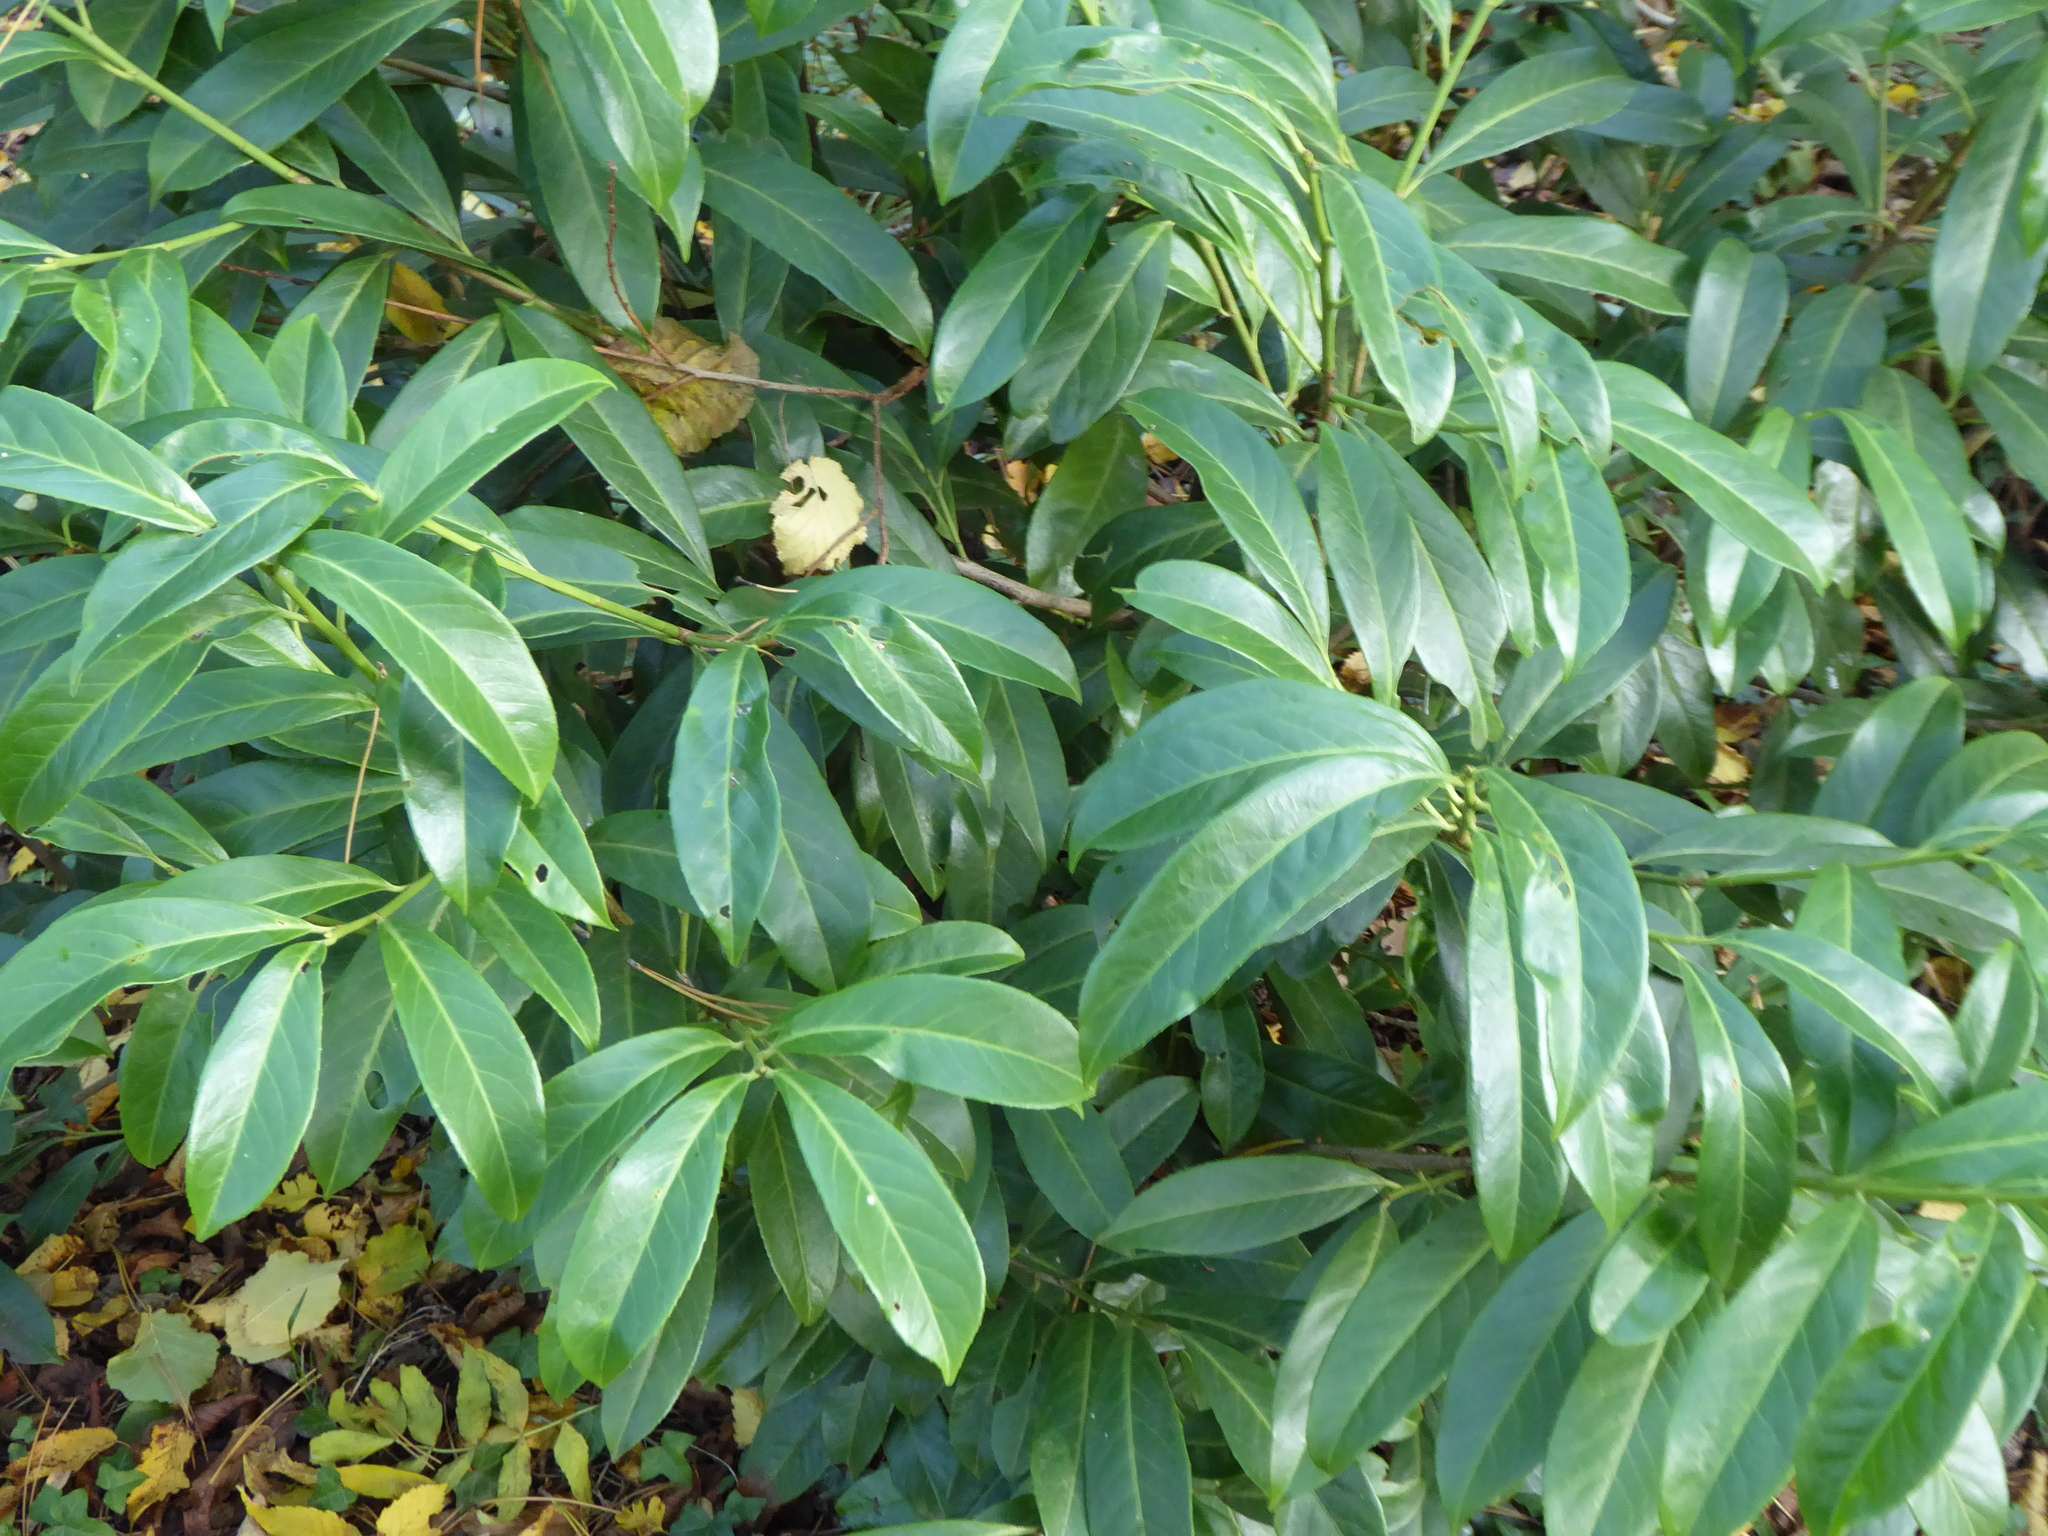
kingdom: Plantae
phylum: Tracheophyta
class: Magnoliopsida
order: Rosales
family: Rosaceae
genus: Prunus
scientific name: Prunus laurocerasus
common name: Cherry laurel
